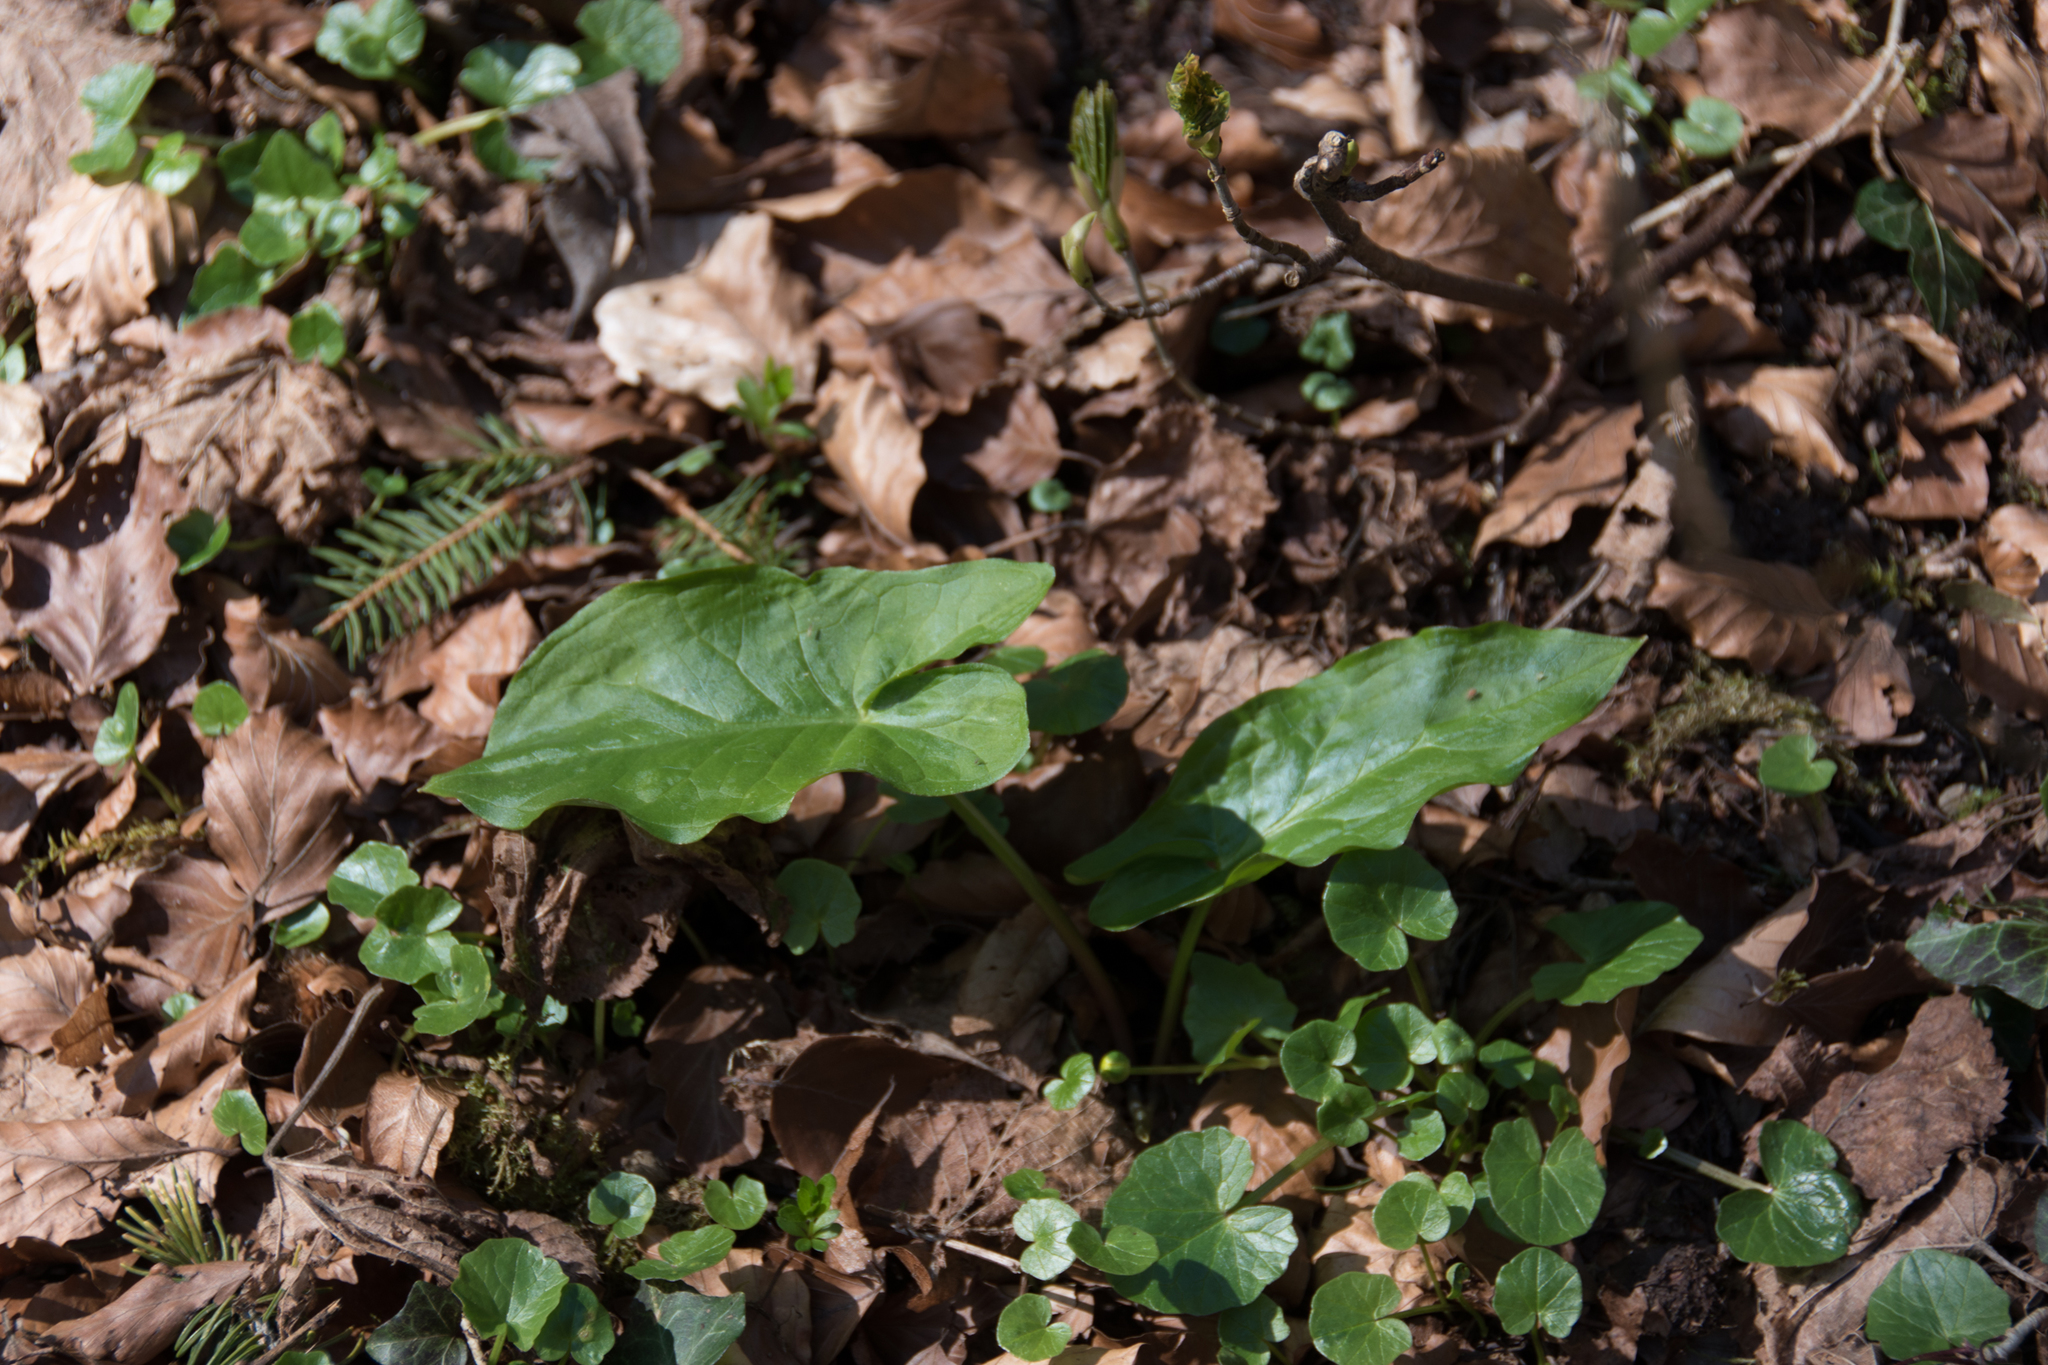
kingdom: Plantae
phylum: Tracheophyta
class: Liliopsida
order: Alismatales
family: Araceae
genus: Arum
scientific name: Arum maculatum
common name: Lords-and-ladies
